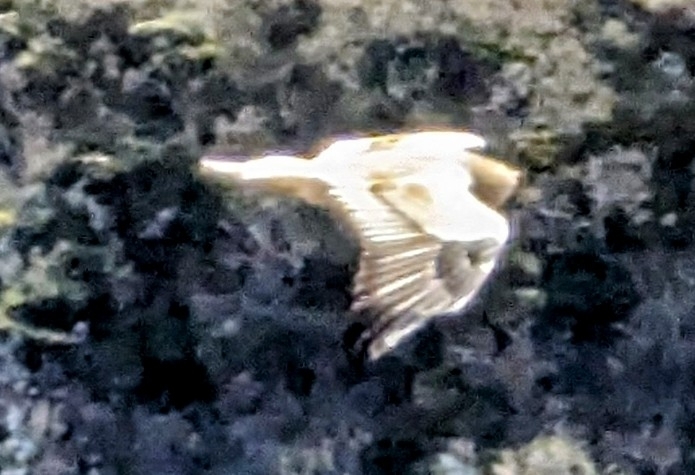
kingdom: Animalia
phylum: Chordata
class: Aves
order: Accipitriformes
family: Accipitridae
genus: Neophron
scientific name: Neophron percnopterus
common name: Egyptian vulture
